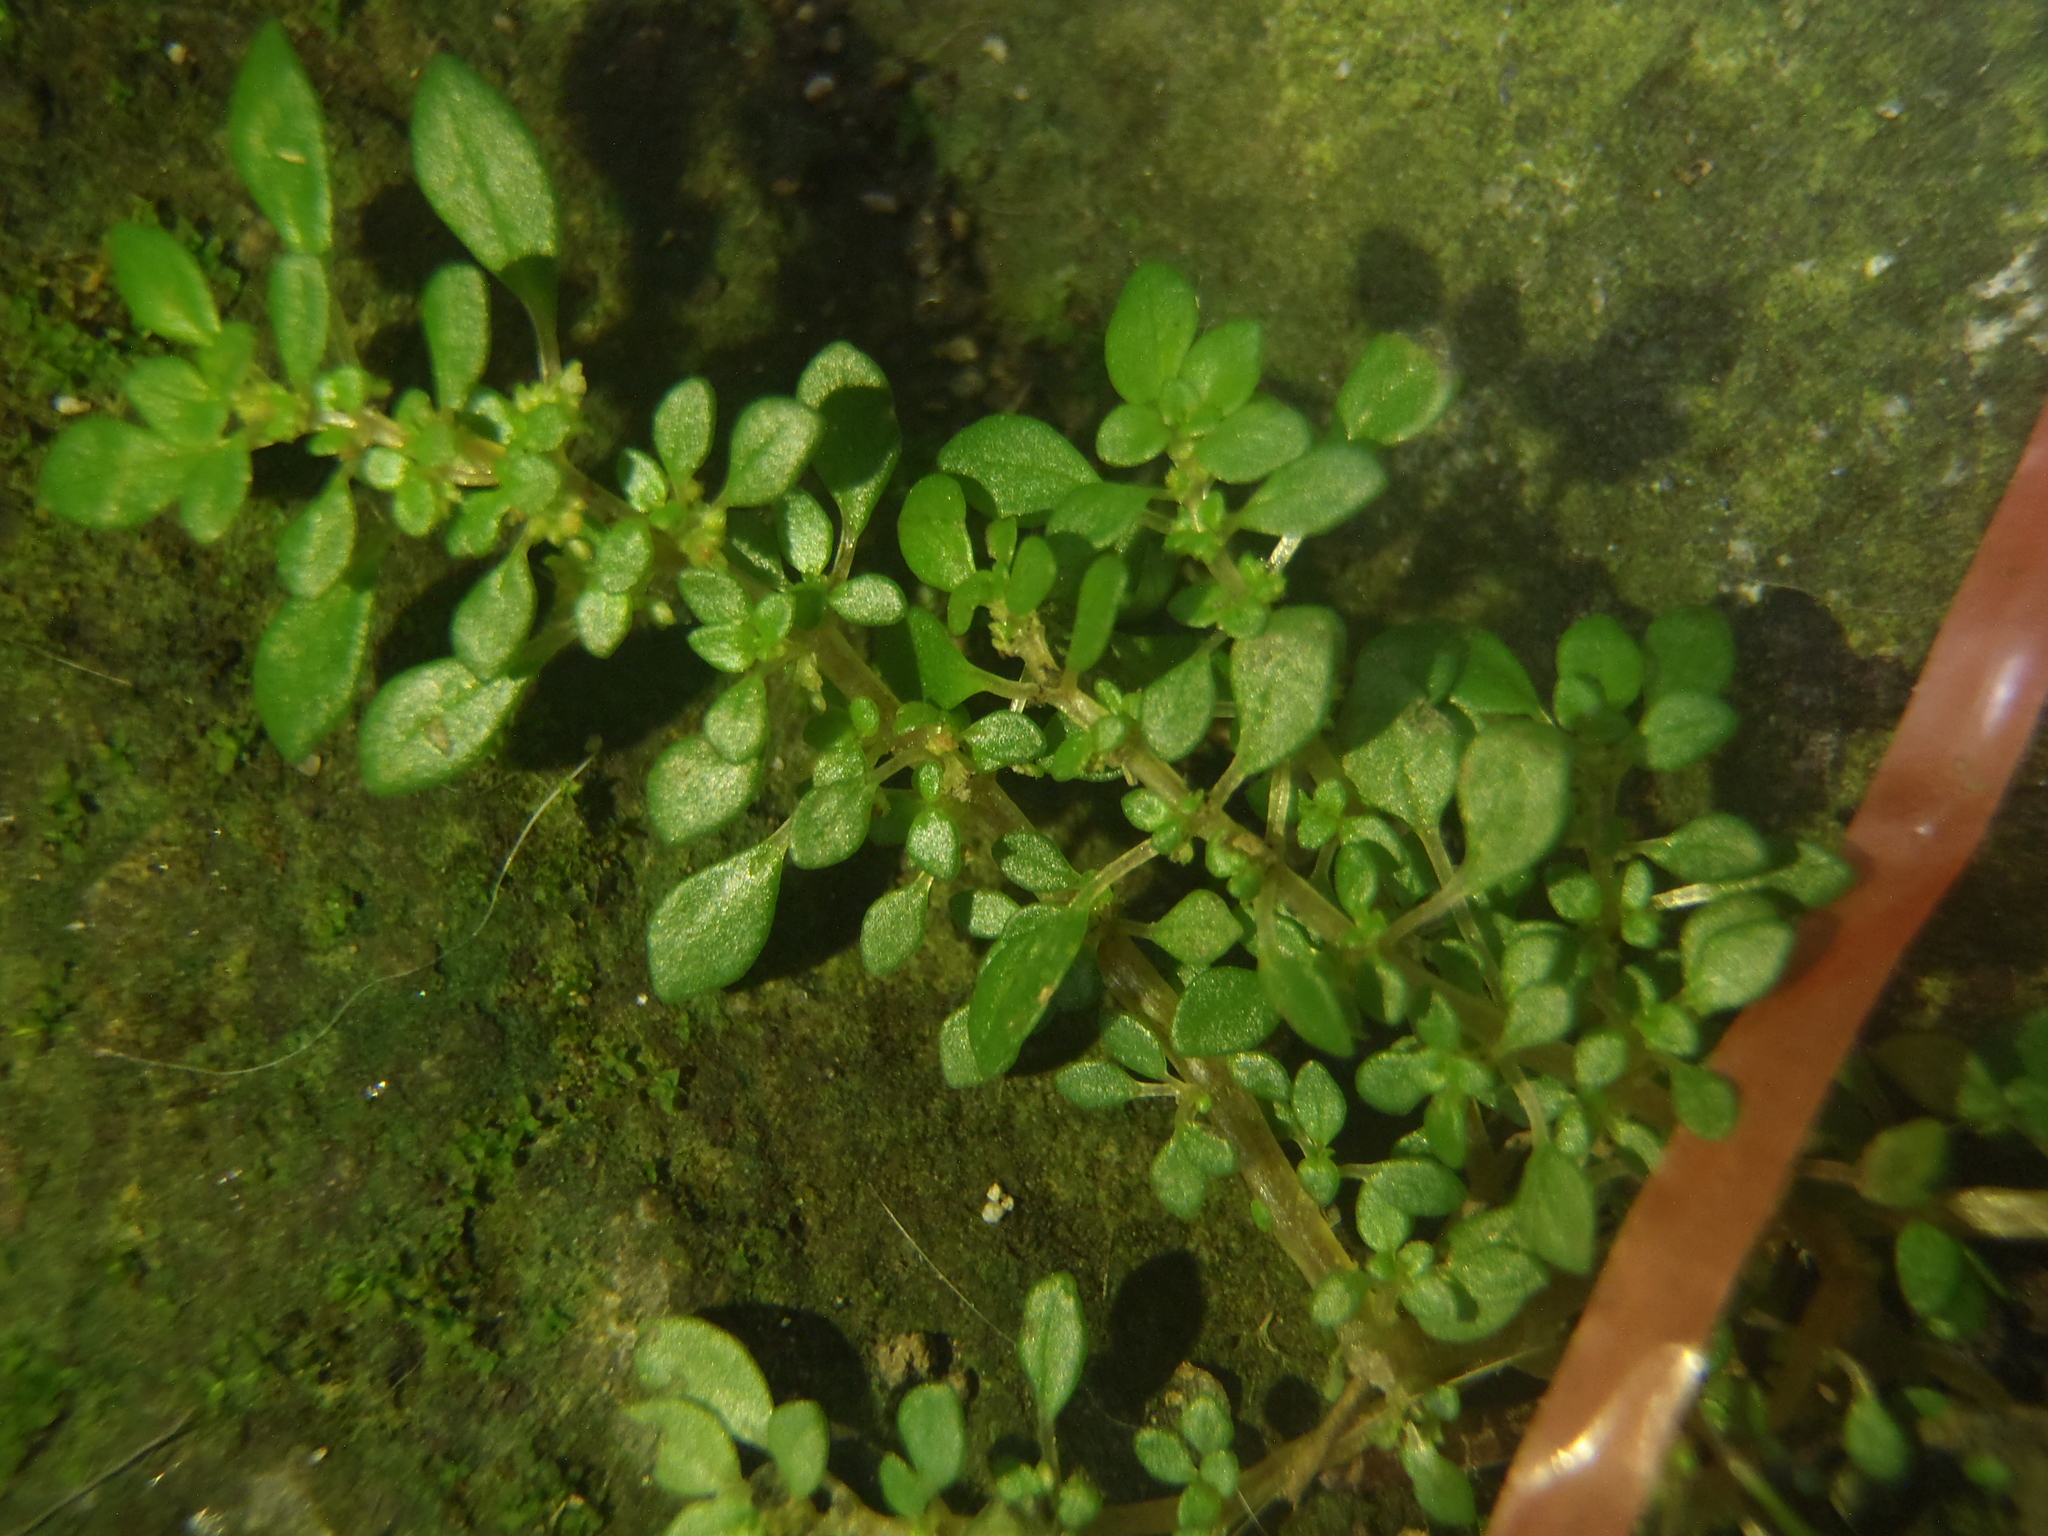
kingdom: Plantae
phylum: Tracheophyta
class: Magnoliopsida
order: Rosales
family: Urticaceae
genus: Pilea
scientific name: Pilea microphylla
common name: Artillery-plant
